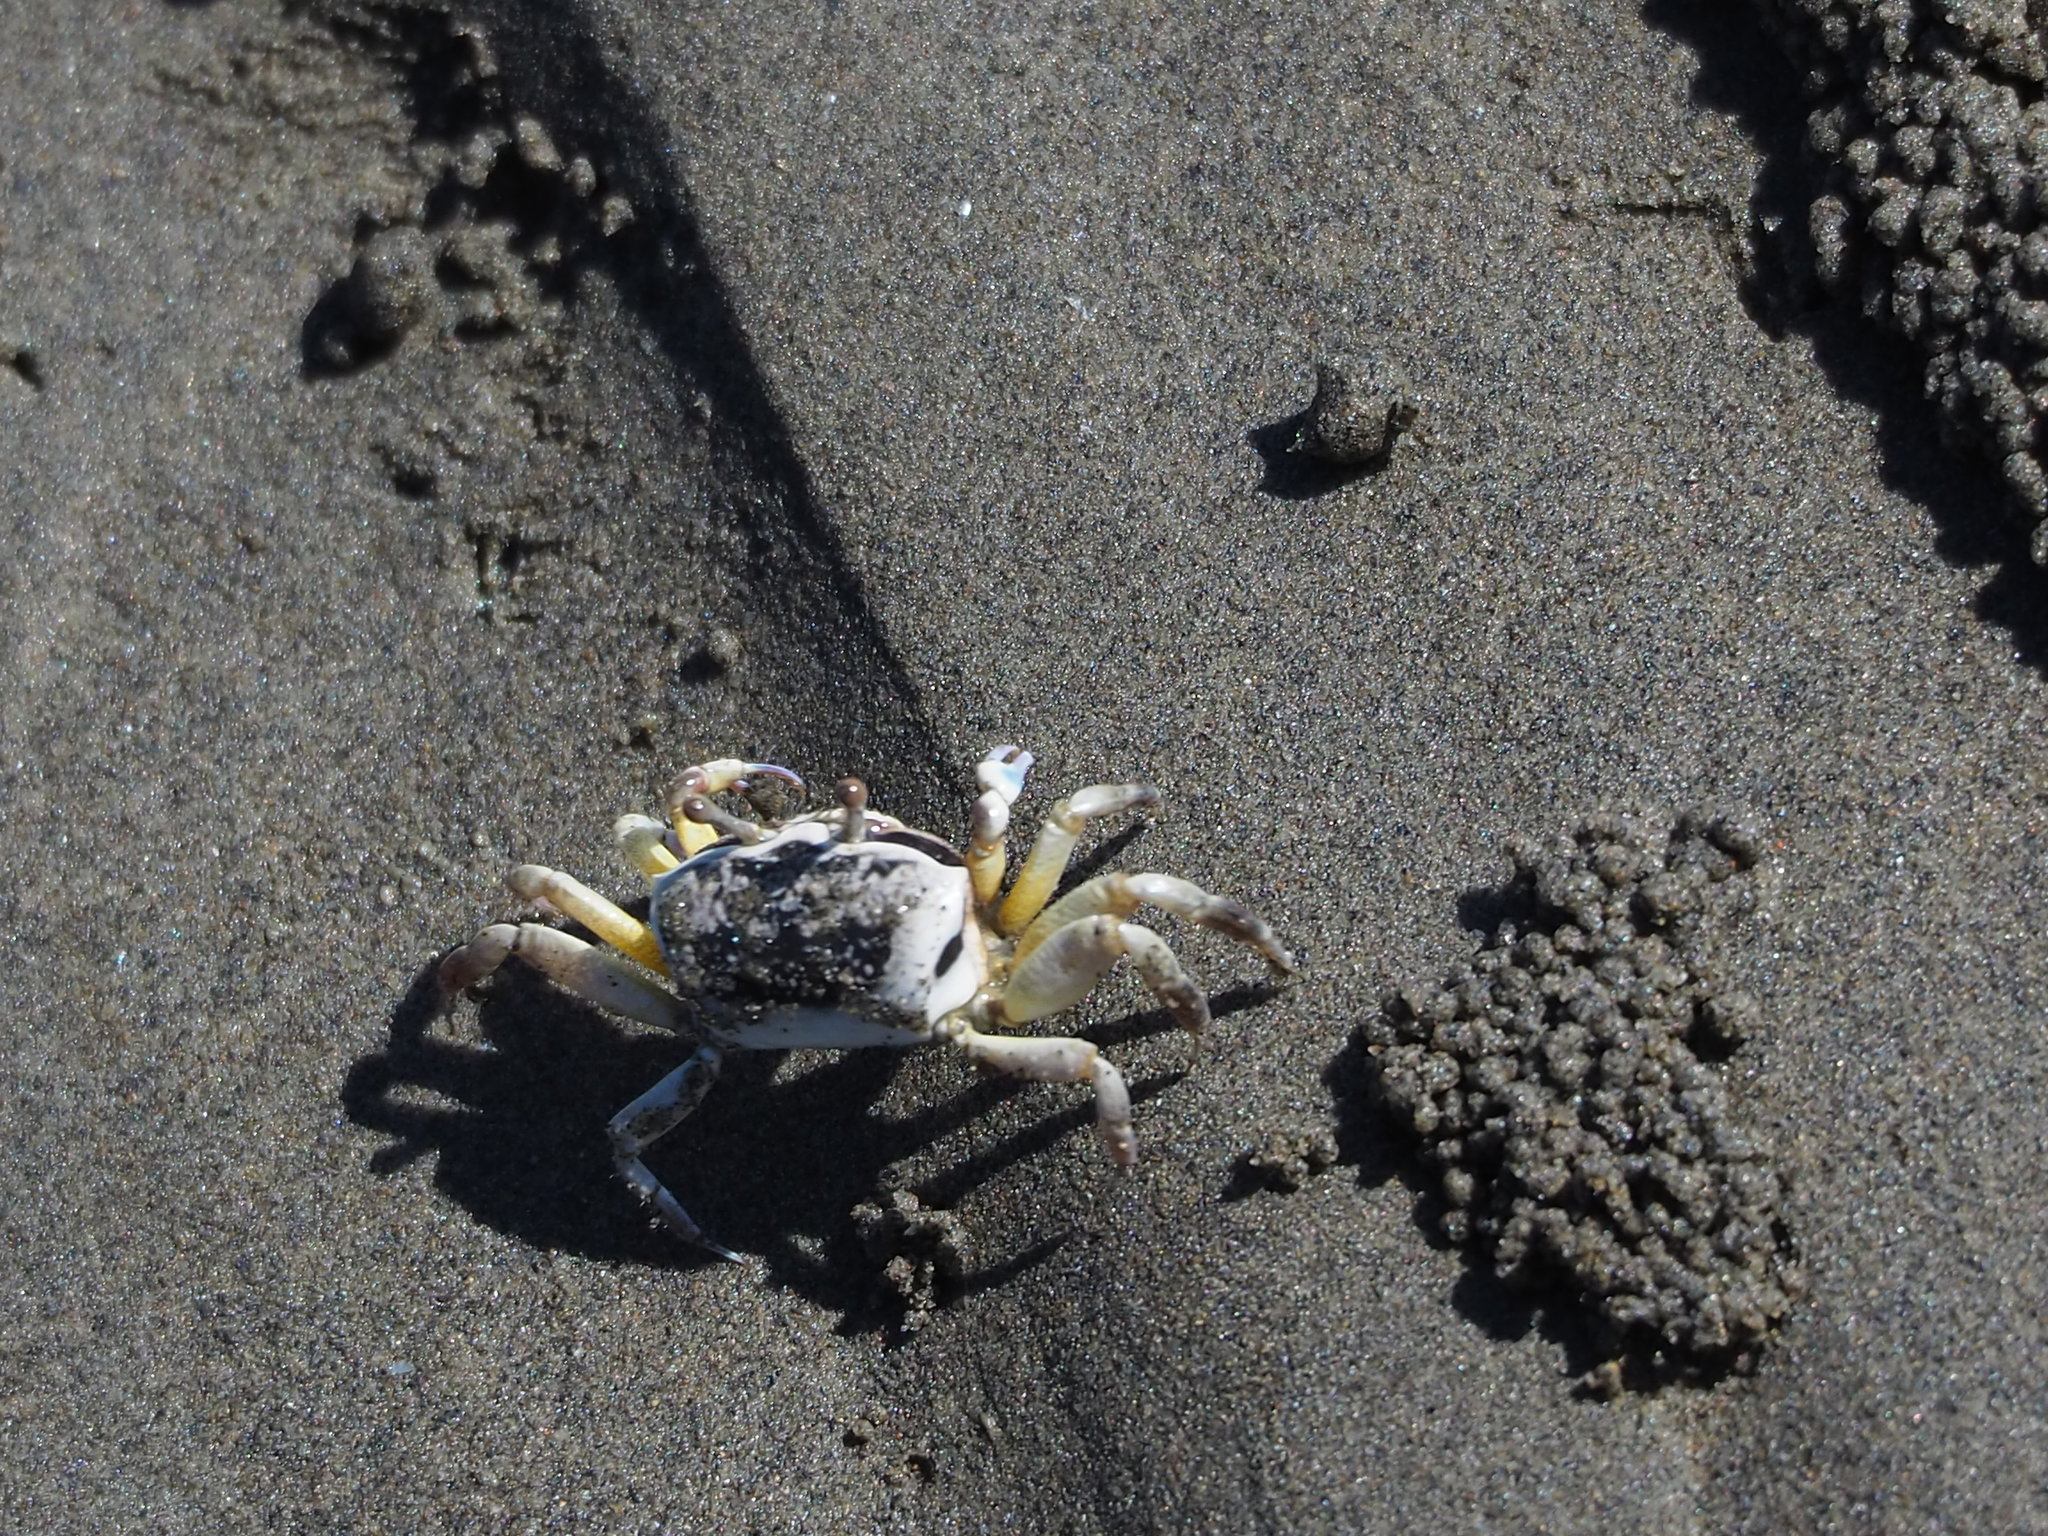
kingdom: Animalia
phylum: Arthropoda
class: Malacostraca
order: Decapoda
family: Ocypodidae
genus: Austruca
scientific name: Austruca lactea
